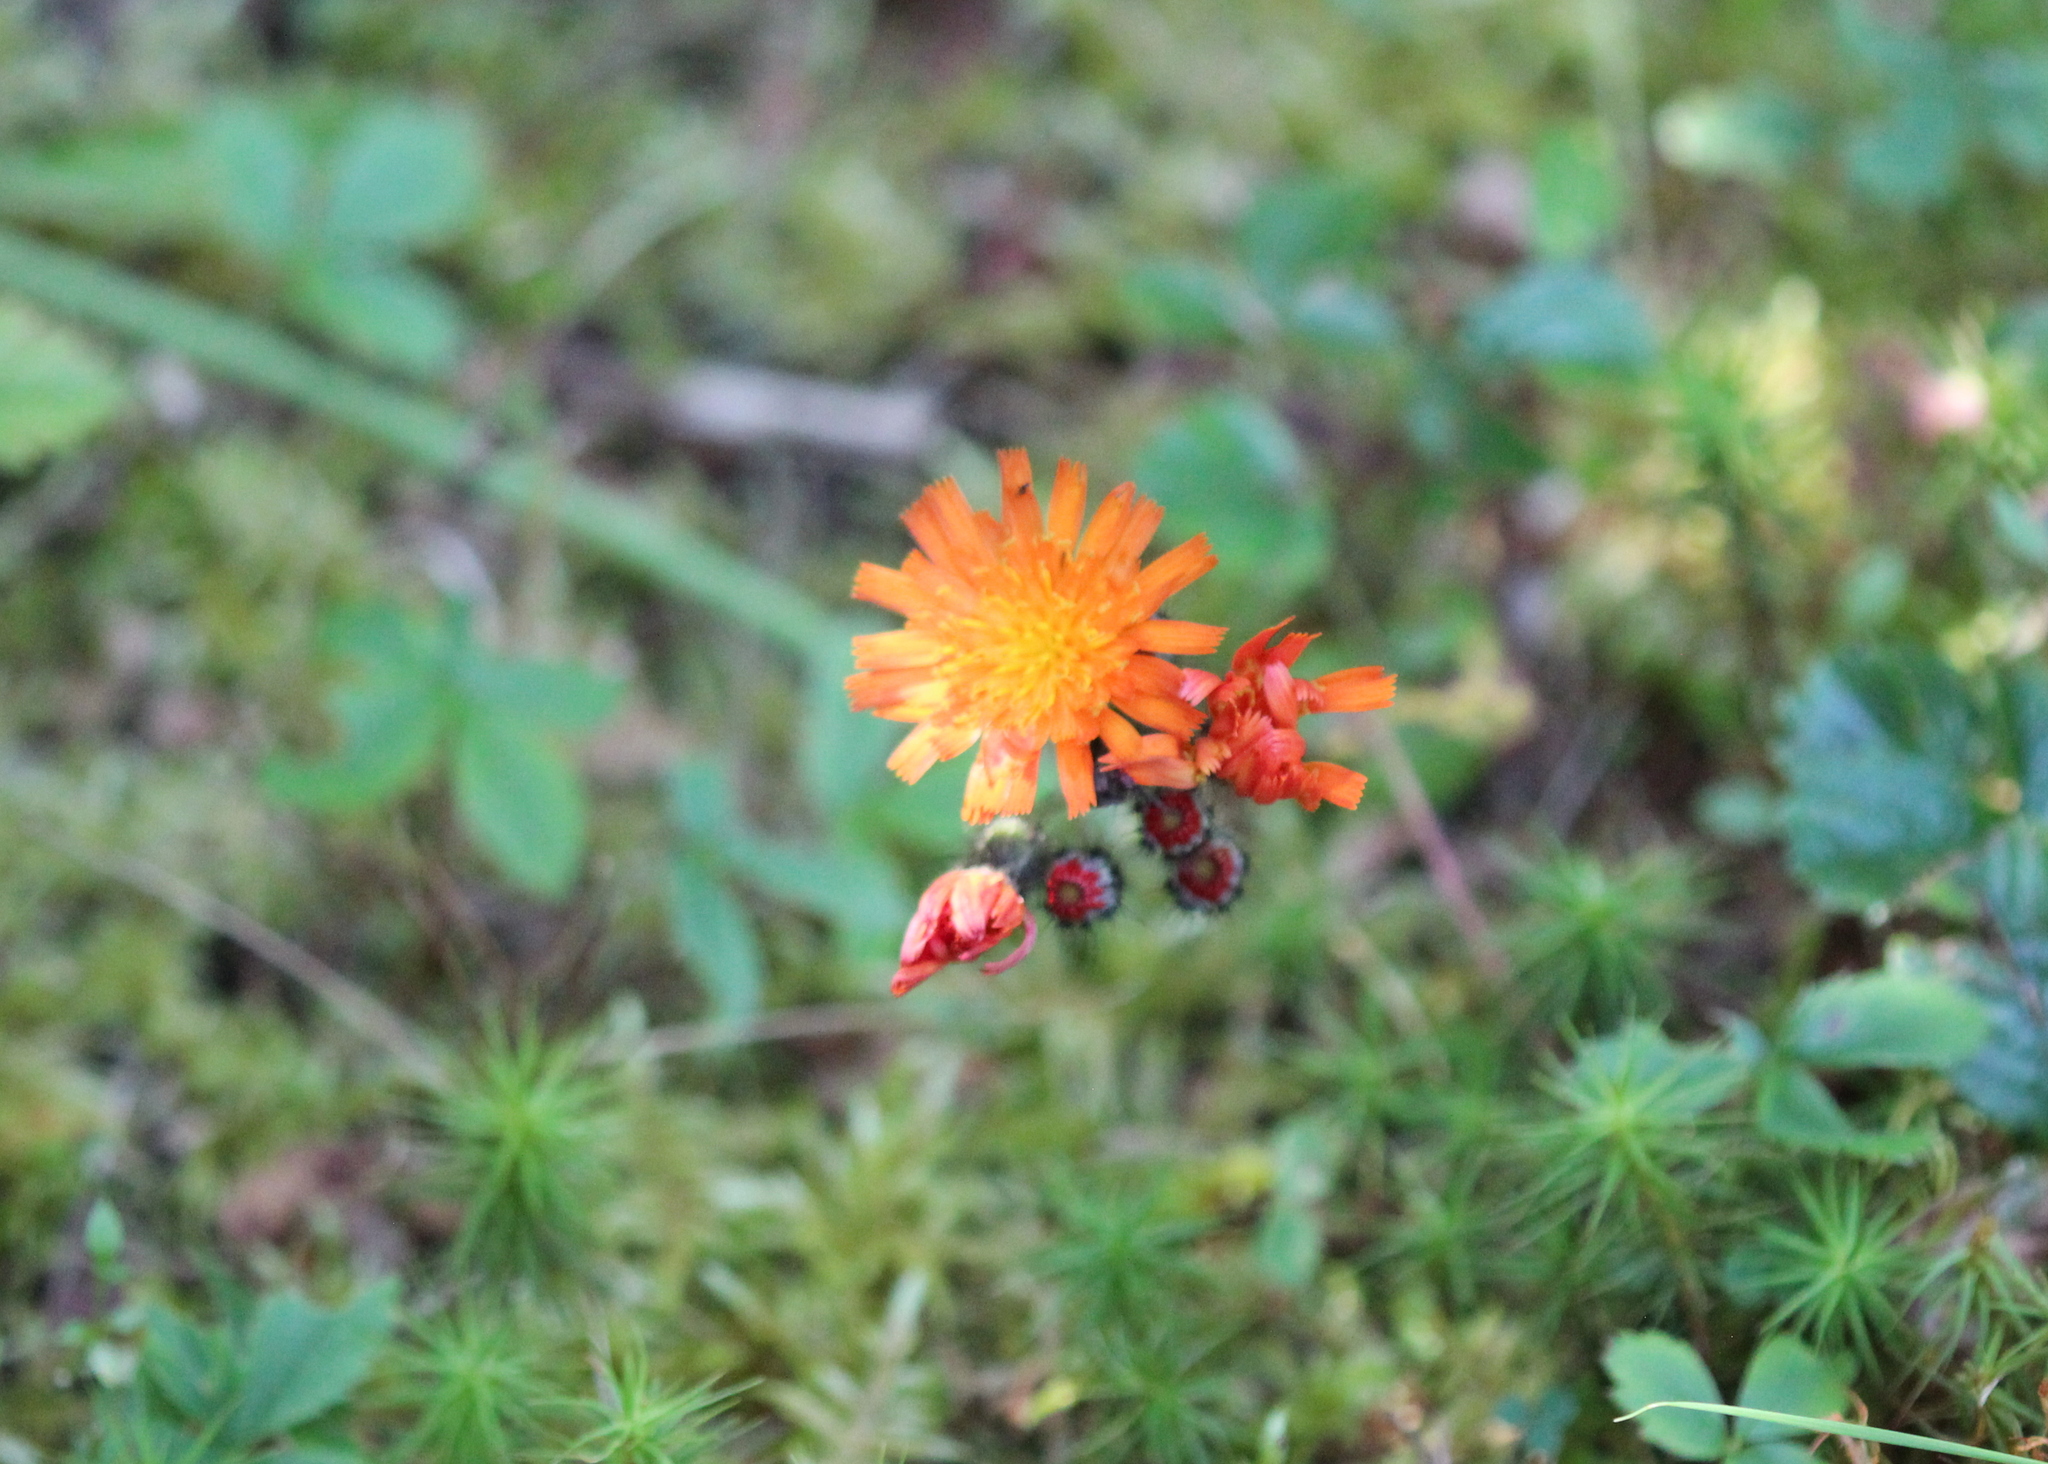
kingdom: Plantae
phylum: Tracheophyta
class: Magnoliopsida
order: Asterales
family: Asteraceae
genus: Pilosella
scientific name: Pilosella aurantiaca
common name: Fox-and-cubs
